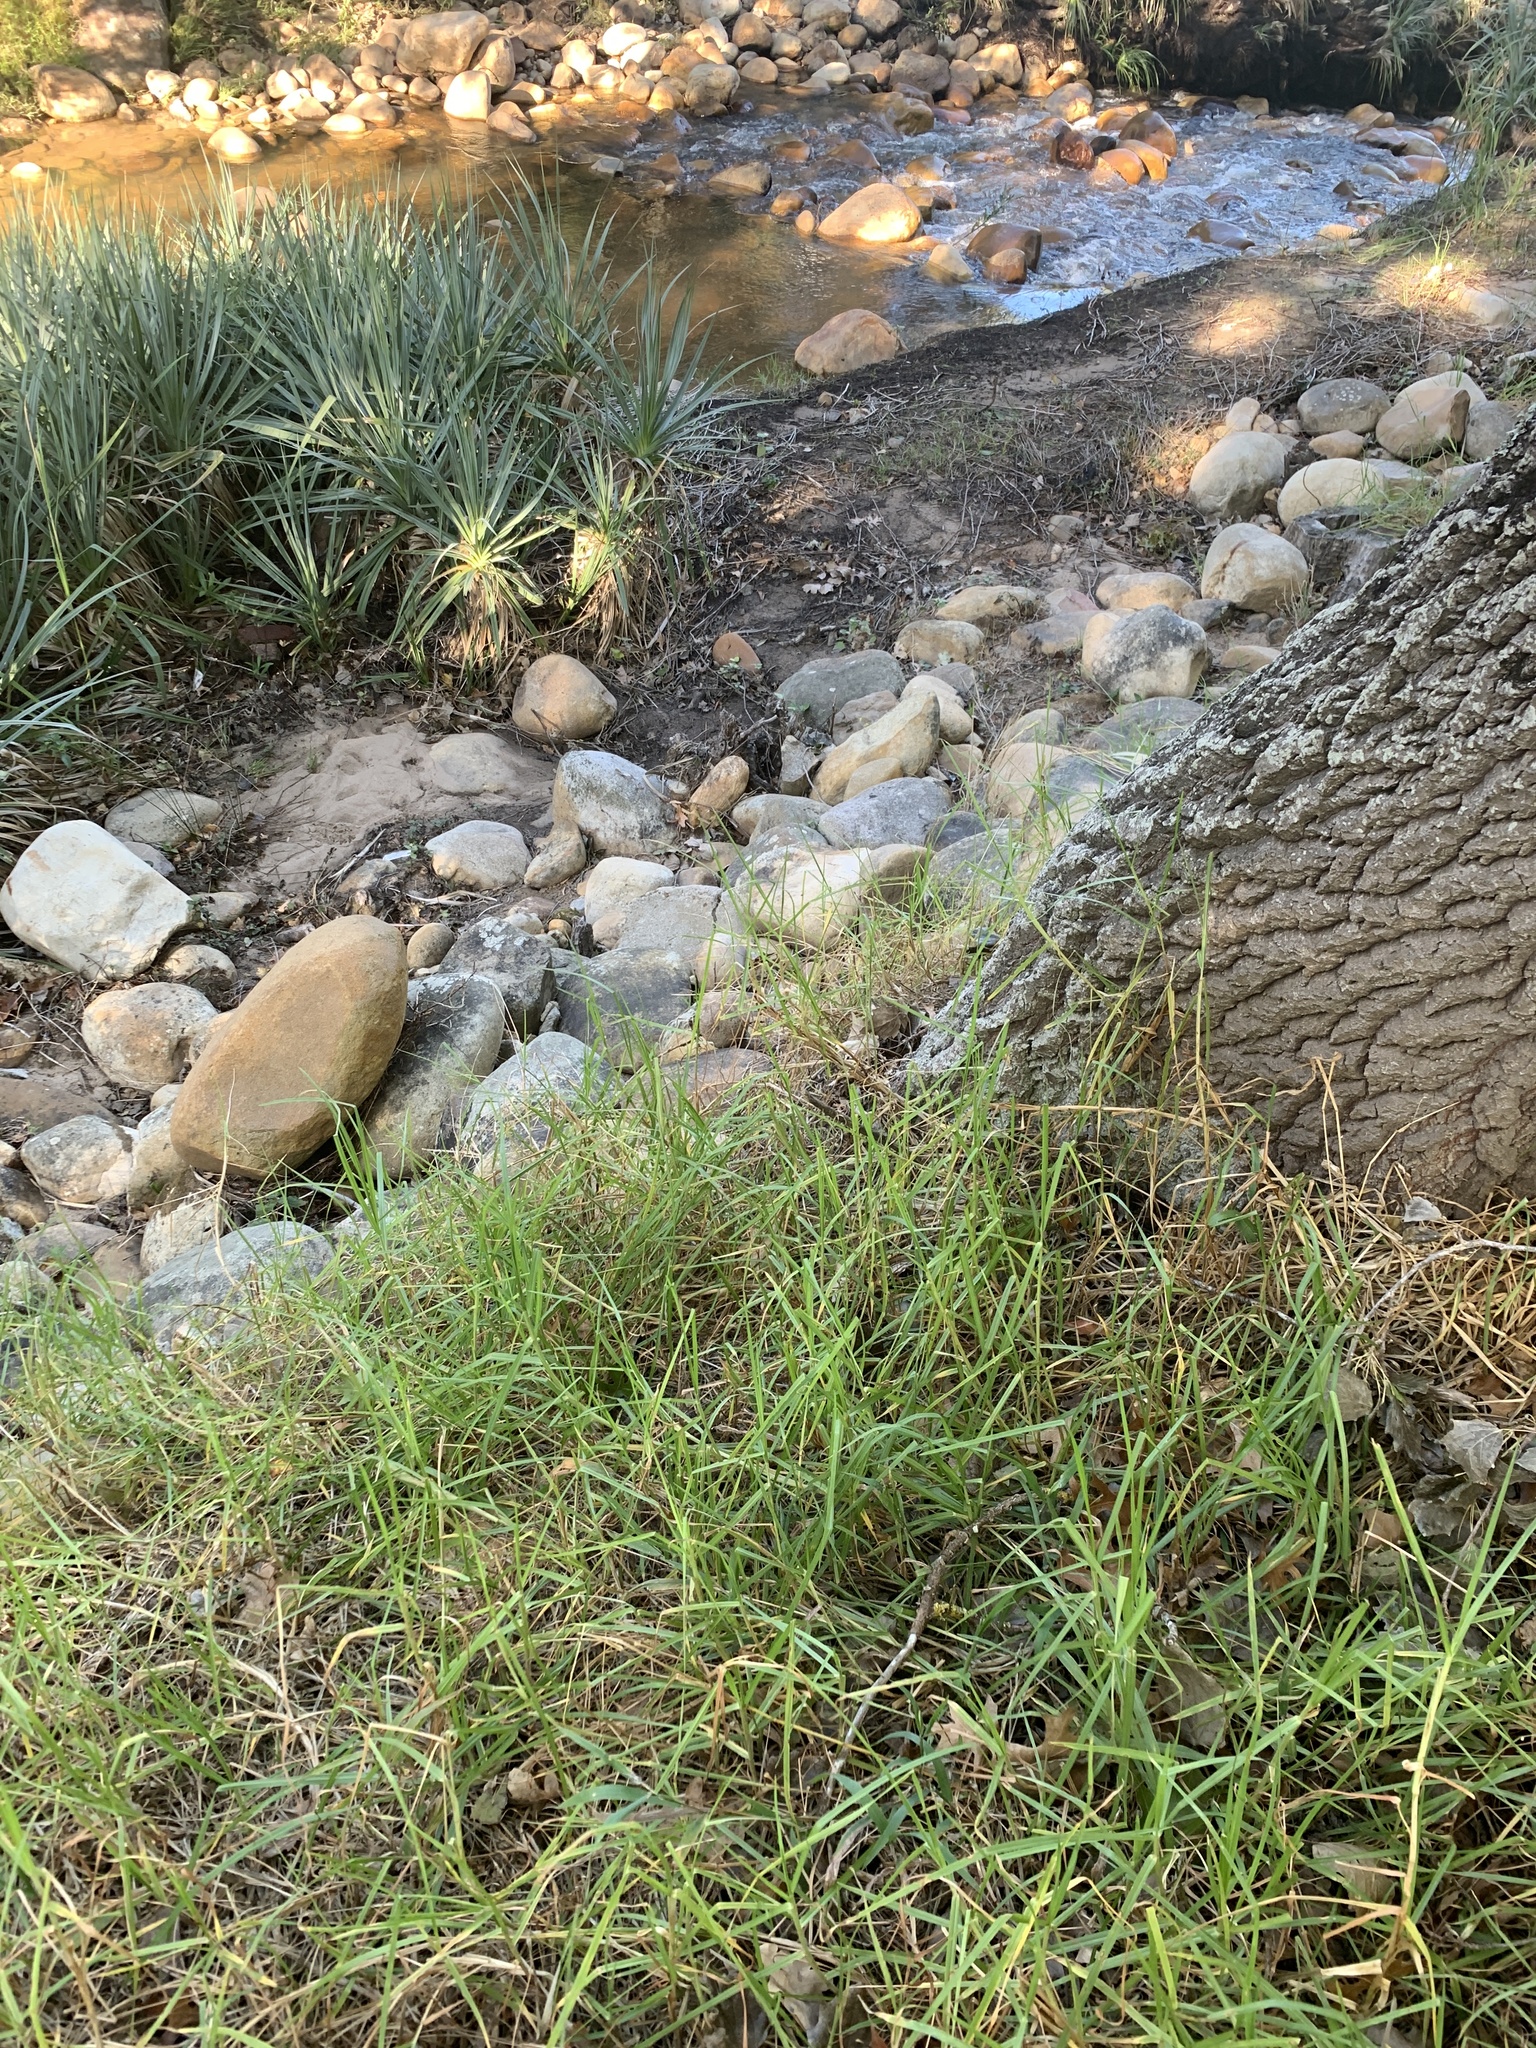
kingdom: Plantae
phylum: Tracheophyta
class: Liliopsida
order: Poales
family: Poaceae
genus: Cenchrus
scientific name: Cenchrus clandestinus
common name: Kikuyugrass
